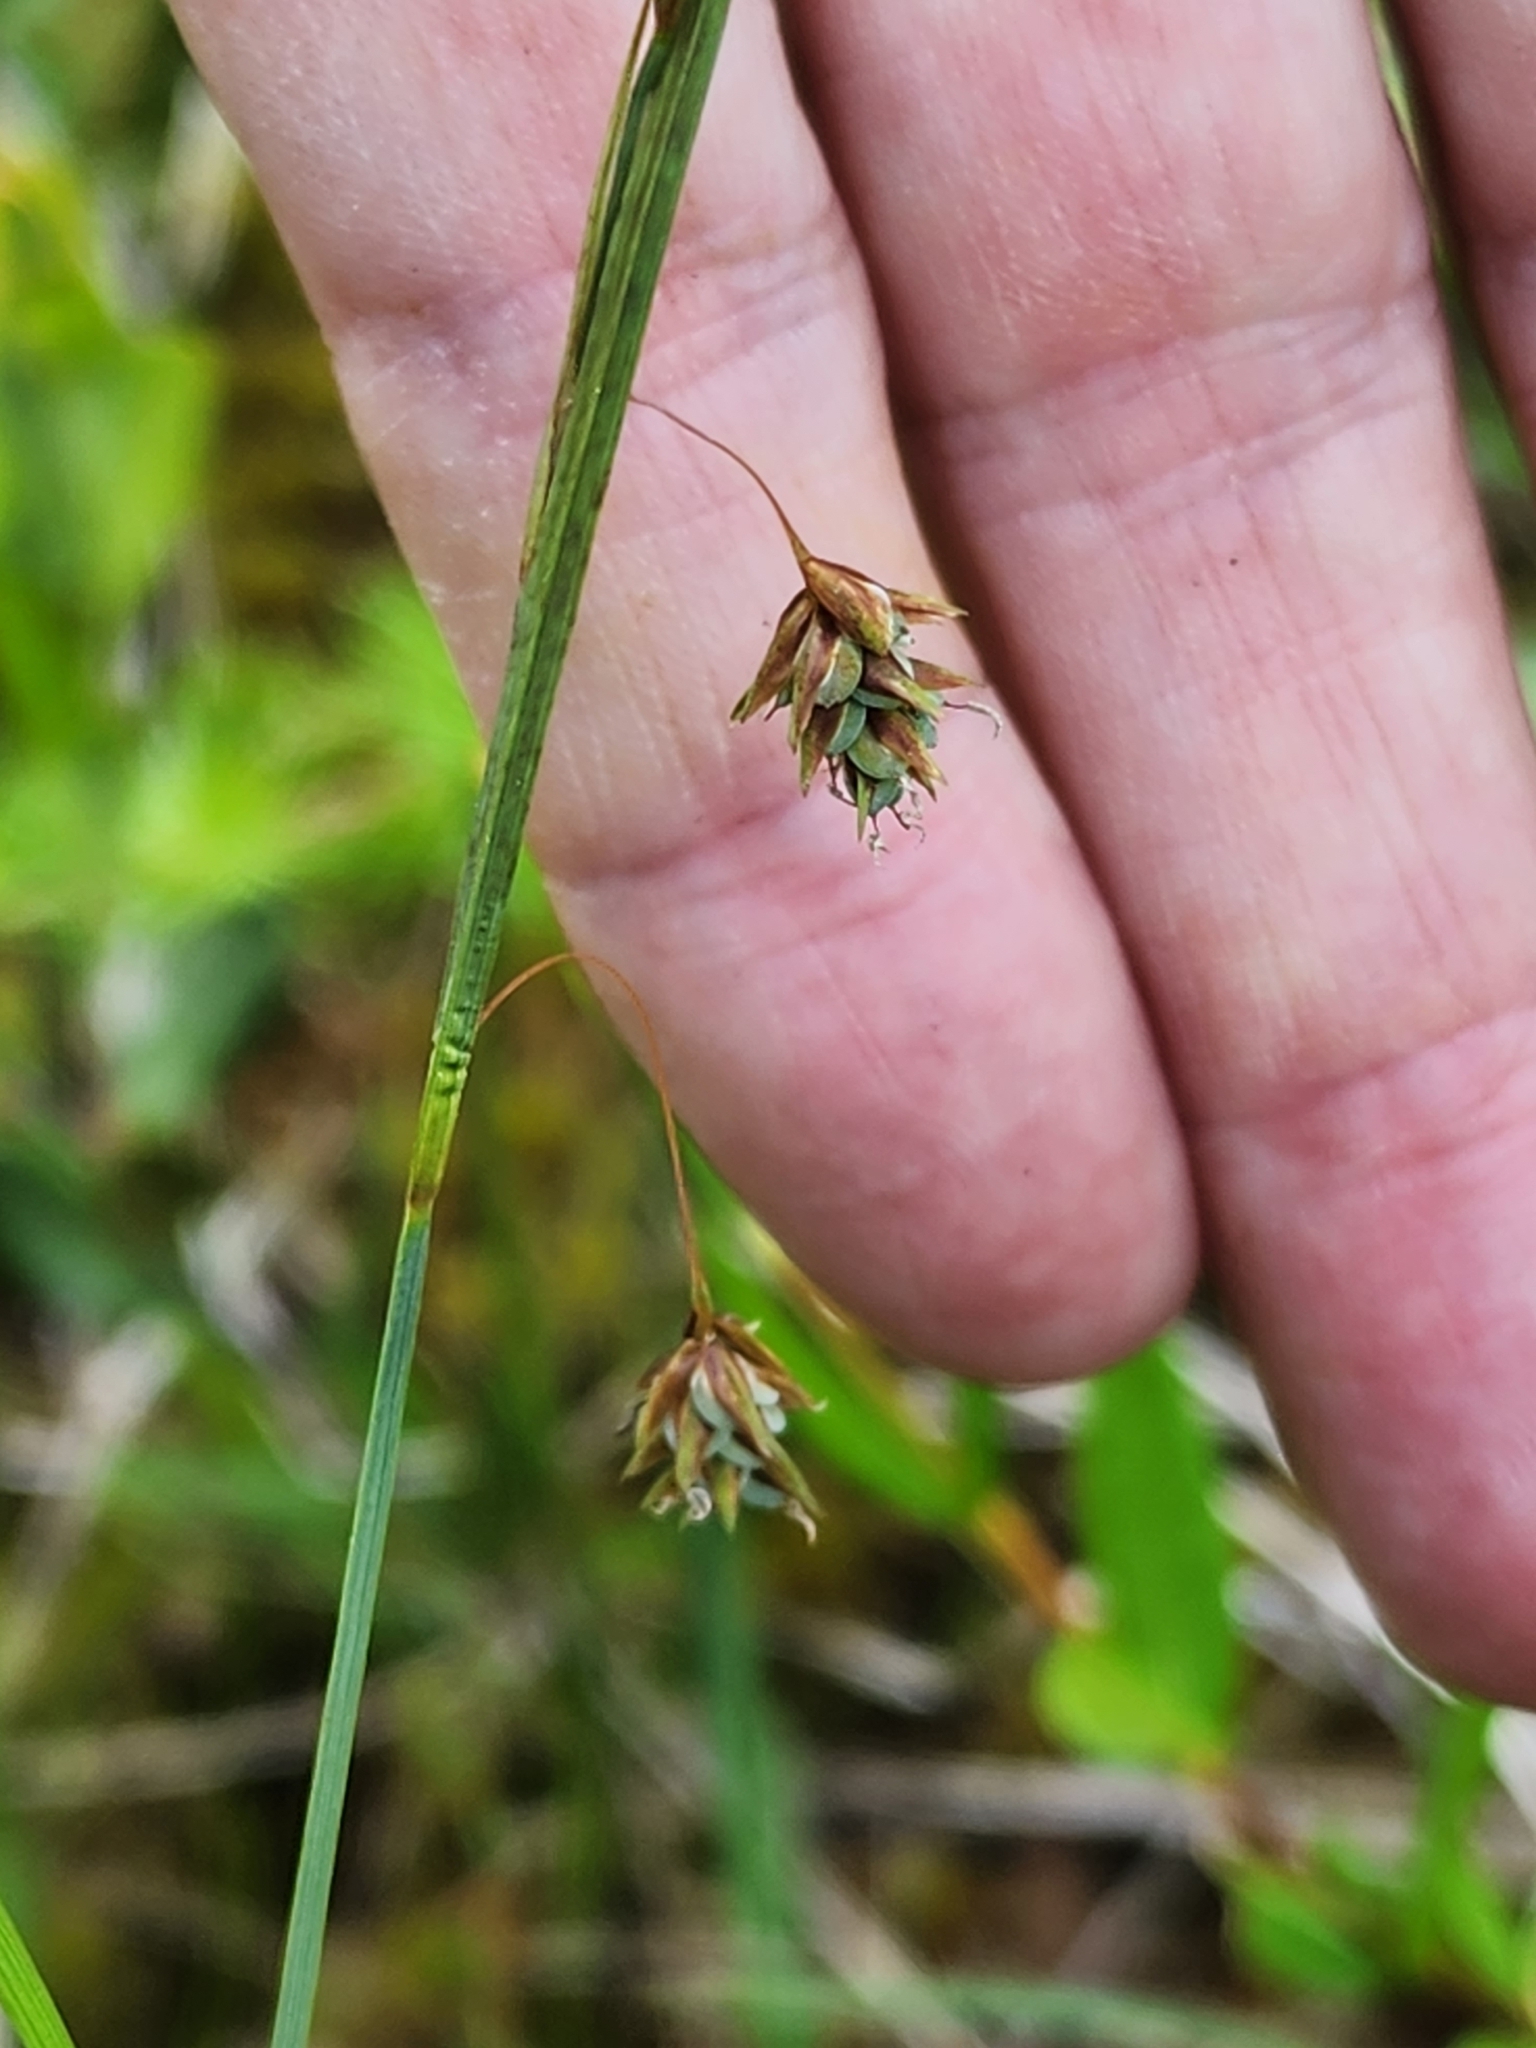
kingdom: Plantae
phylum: Tracheophyta
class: Liliopsida
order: Poales
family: Cyperaceae
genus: Carex
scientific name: Carex magellanica
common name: Bog sedge
